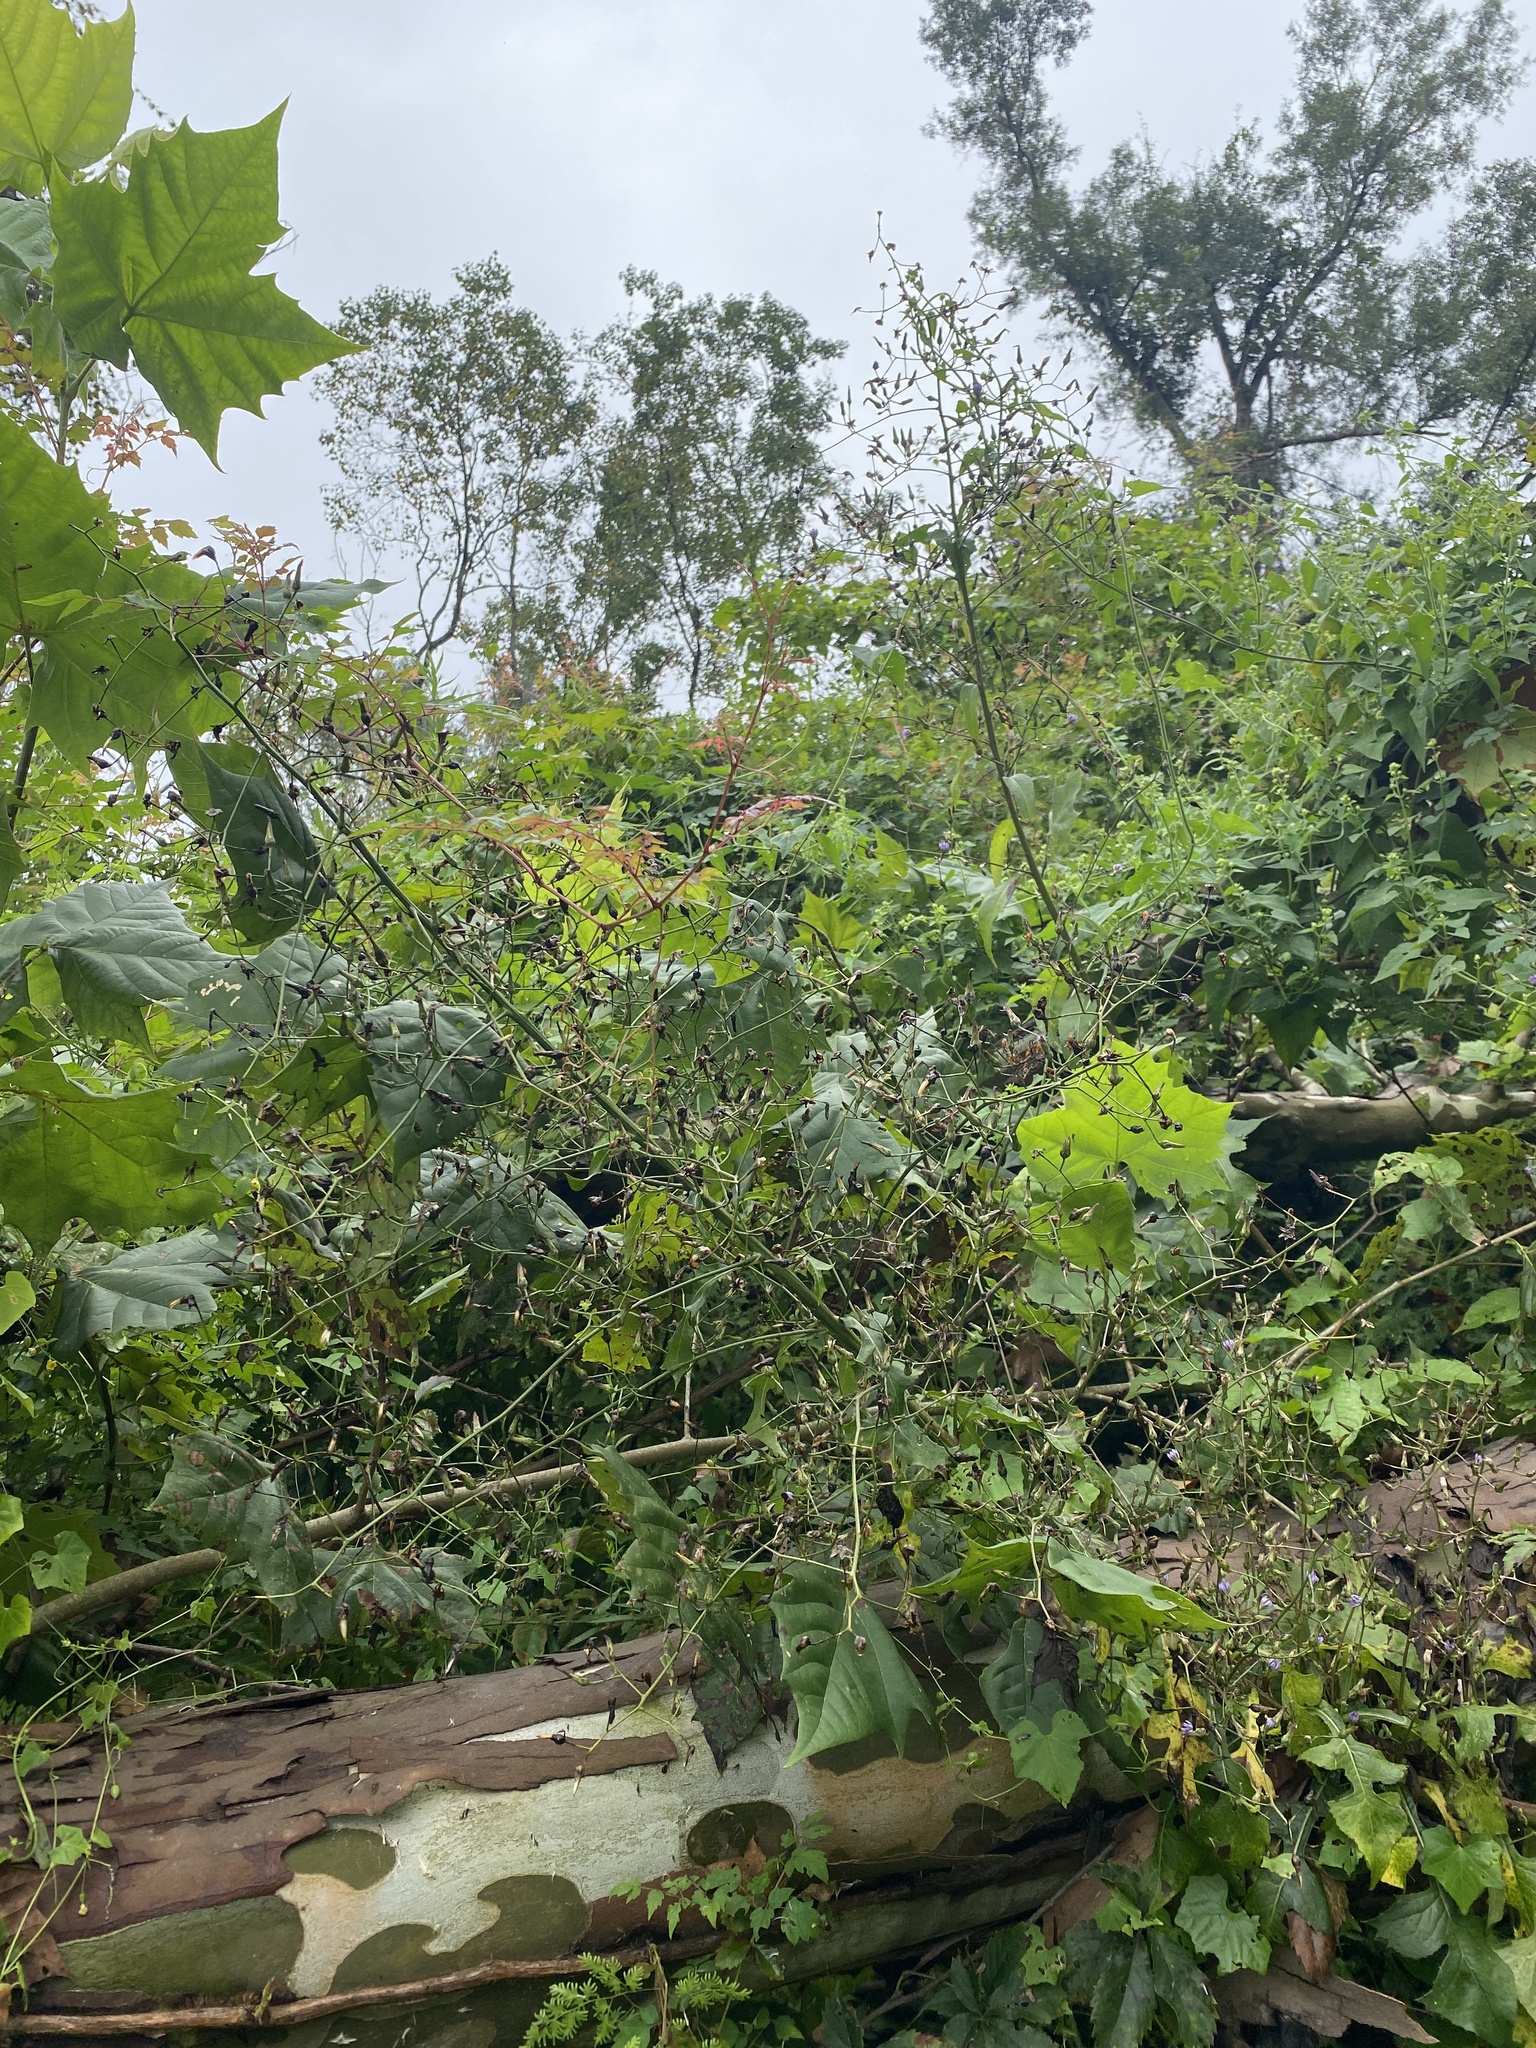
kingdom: Plantae
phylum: Tracheophyta
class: Magnoliopsida
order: Asterales
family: Asteraceae
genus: Lactuca
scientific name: Lactuca floridana
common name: Woodland lettuce
